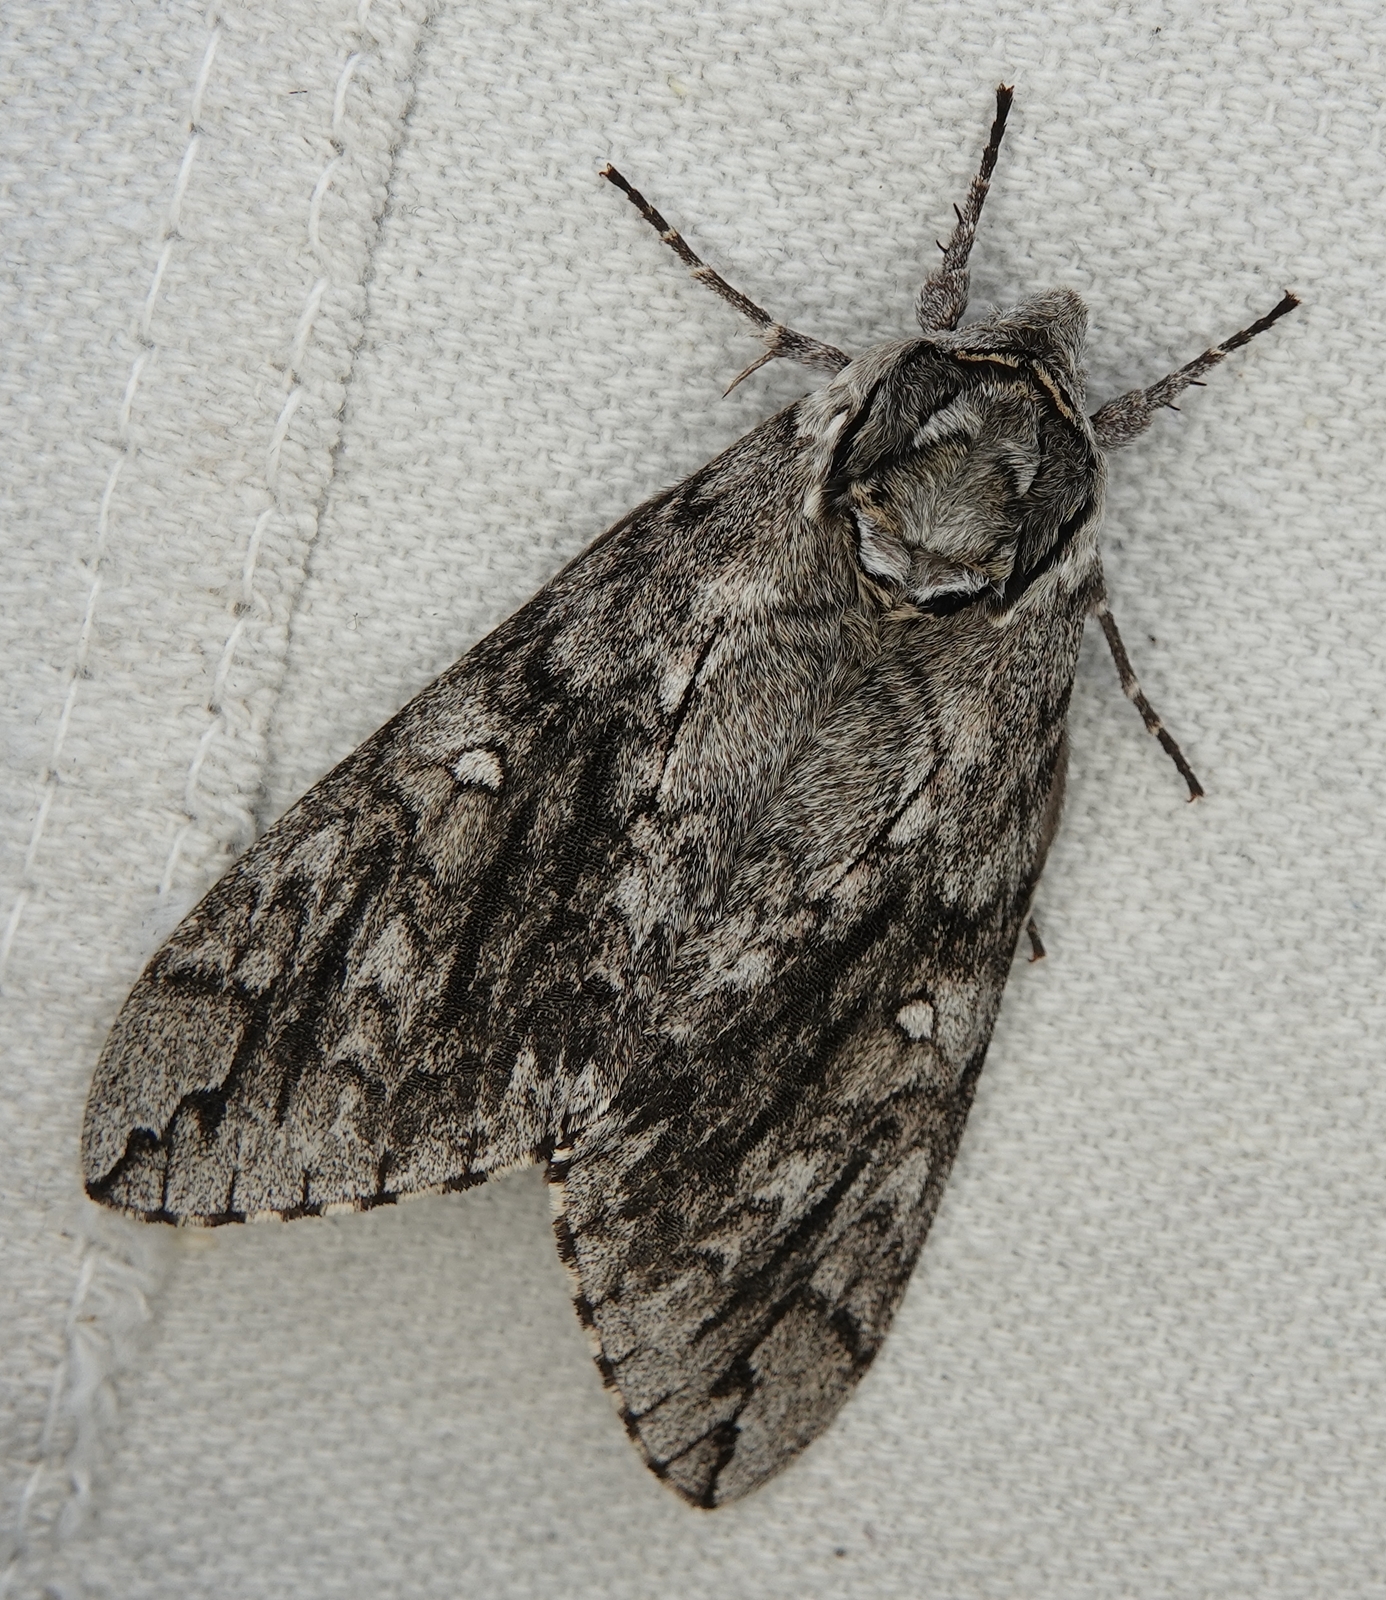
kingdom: Animalia
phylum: Arthropoda
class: Insecta
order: Lepidoptera
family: Sphingidae
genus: Ceratomia
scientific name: Ceratomia undulosa
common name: Waved sphinx
